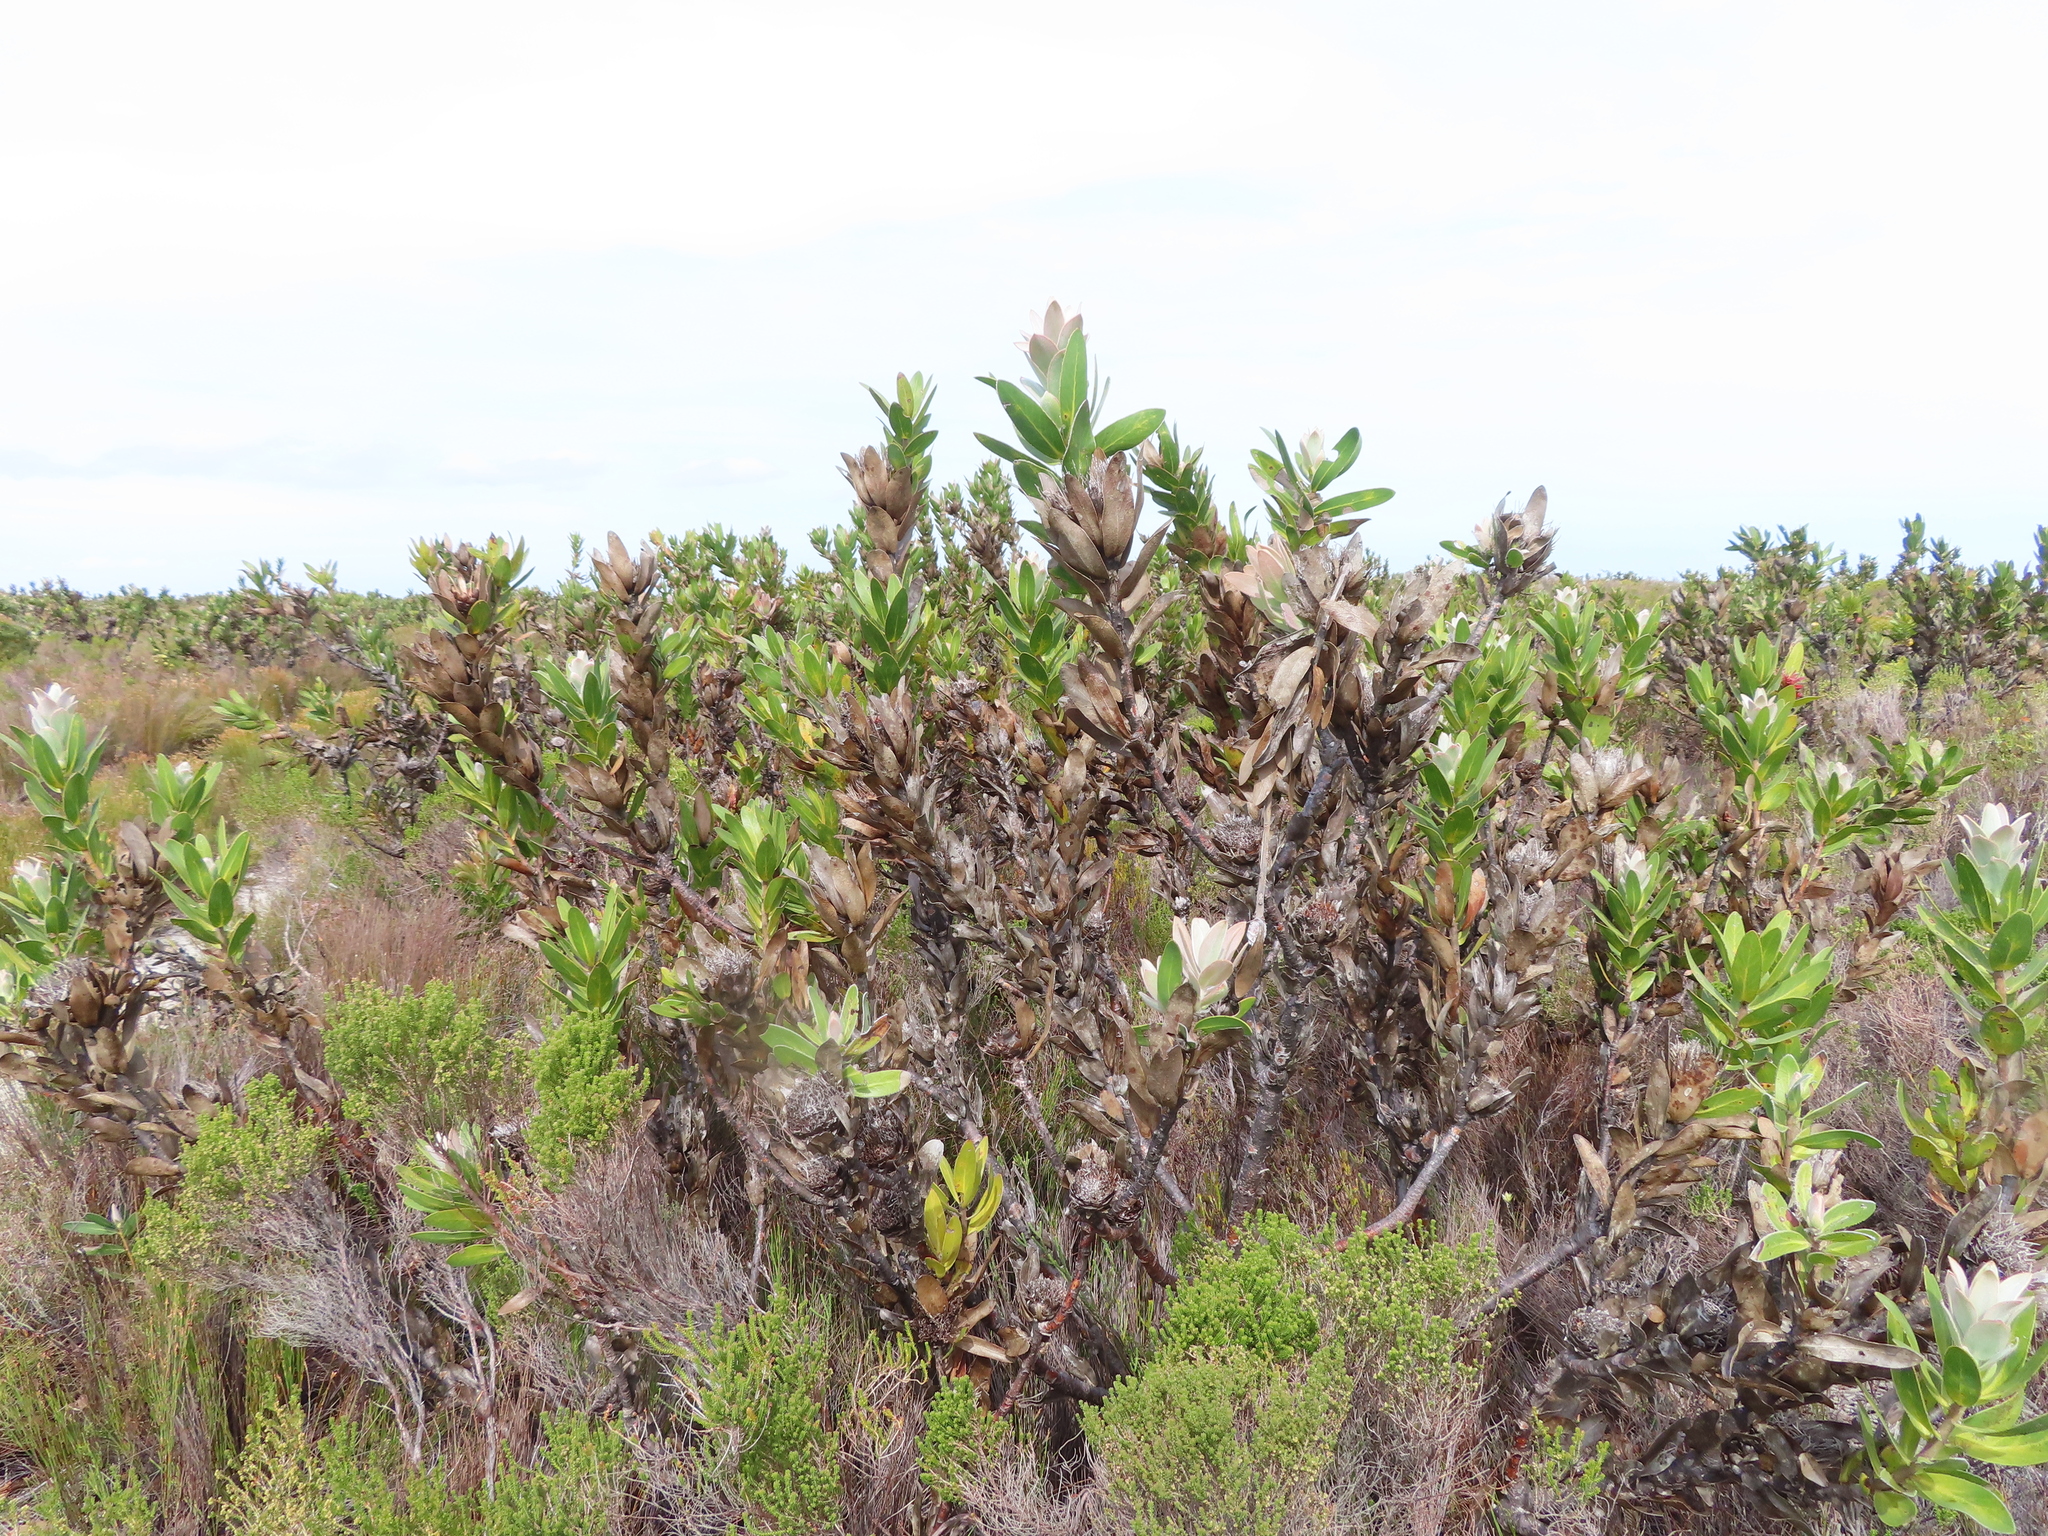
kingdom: Plantae
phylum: Tracheophyta
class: Magnoliopsida
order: Proteales
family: Proteaceae
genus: Protea
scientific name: Protea compacta
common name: Bot river protea
